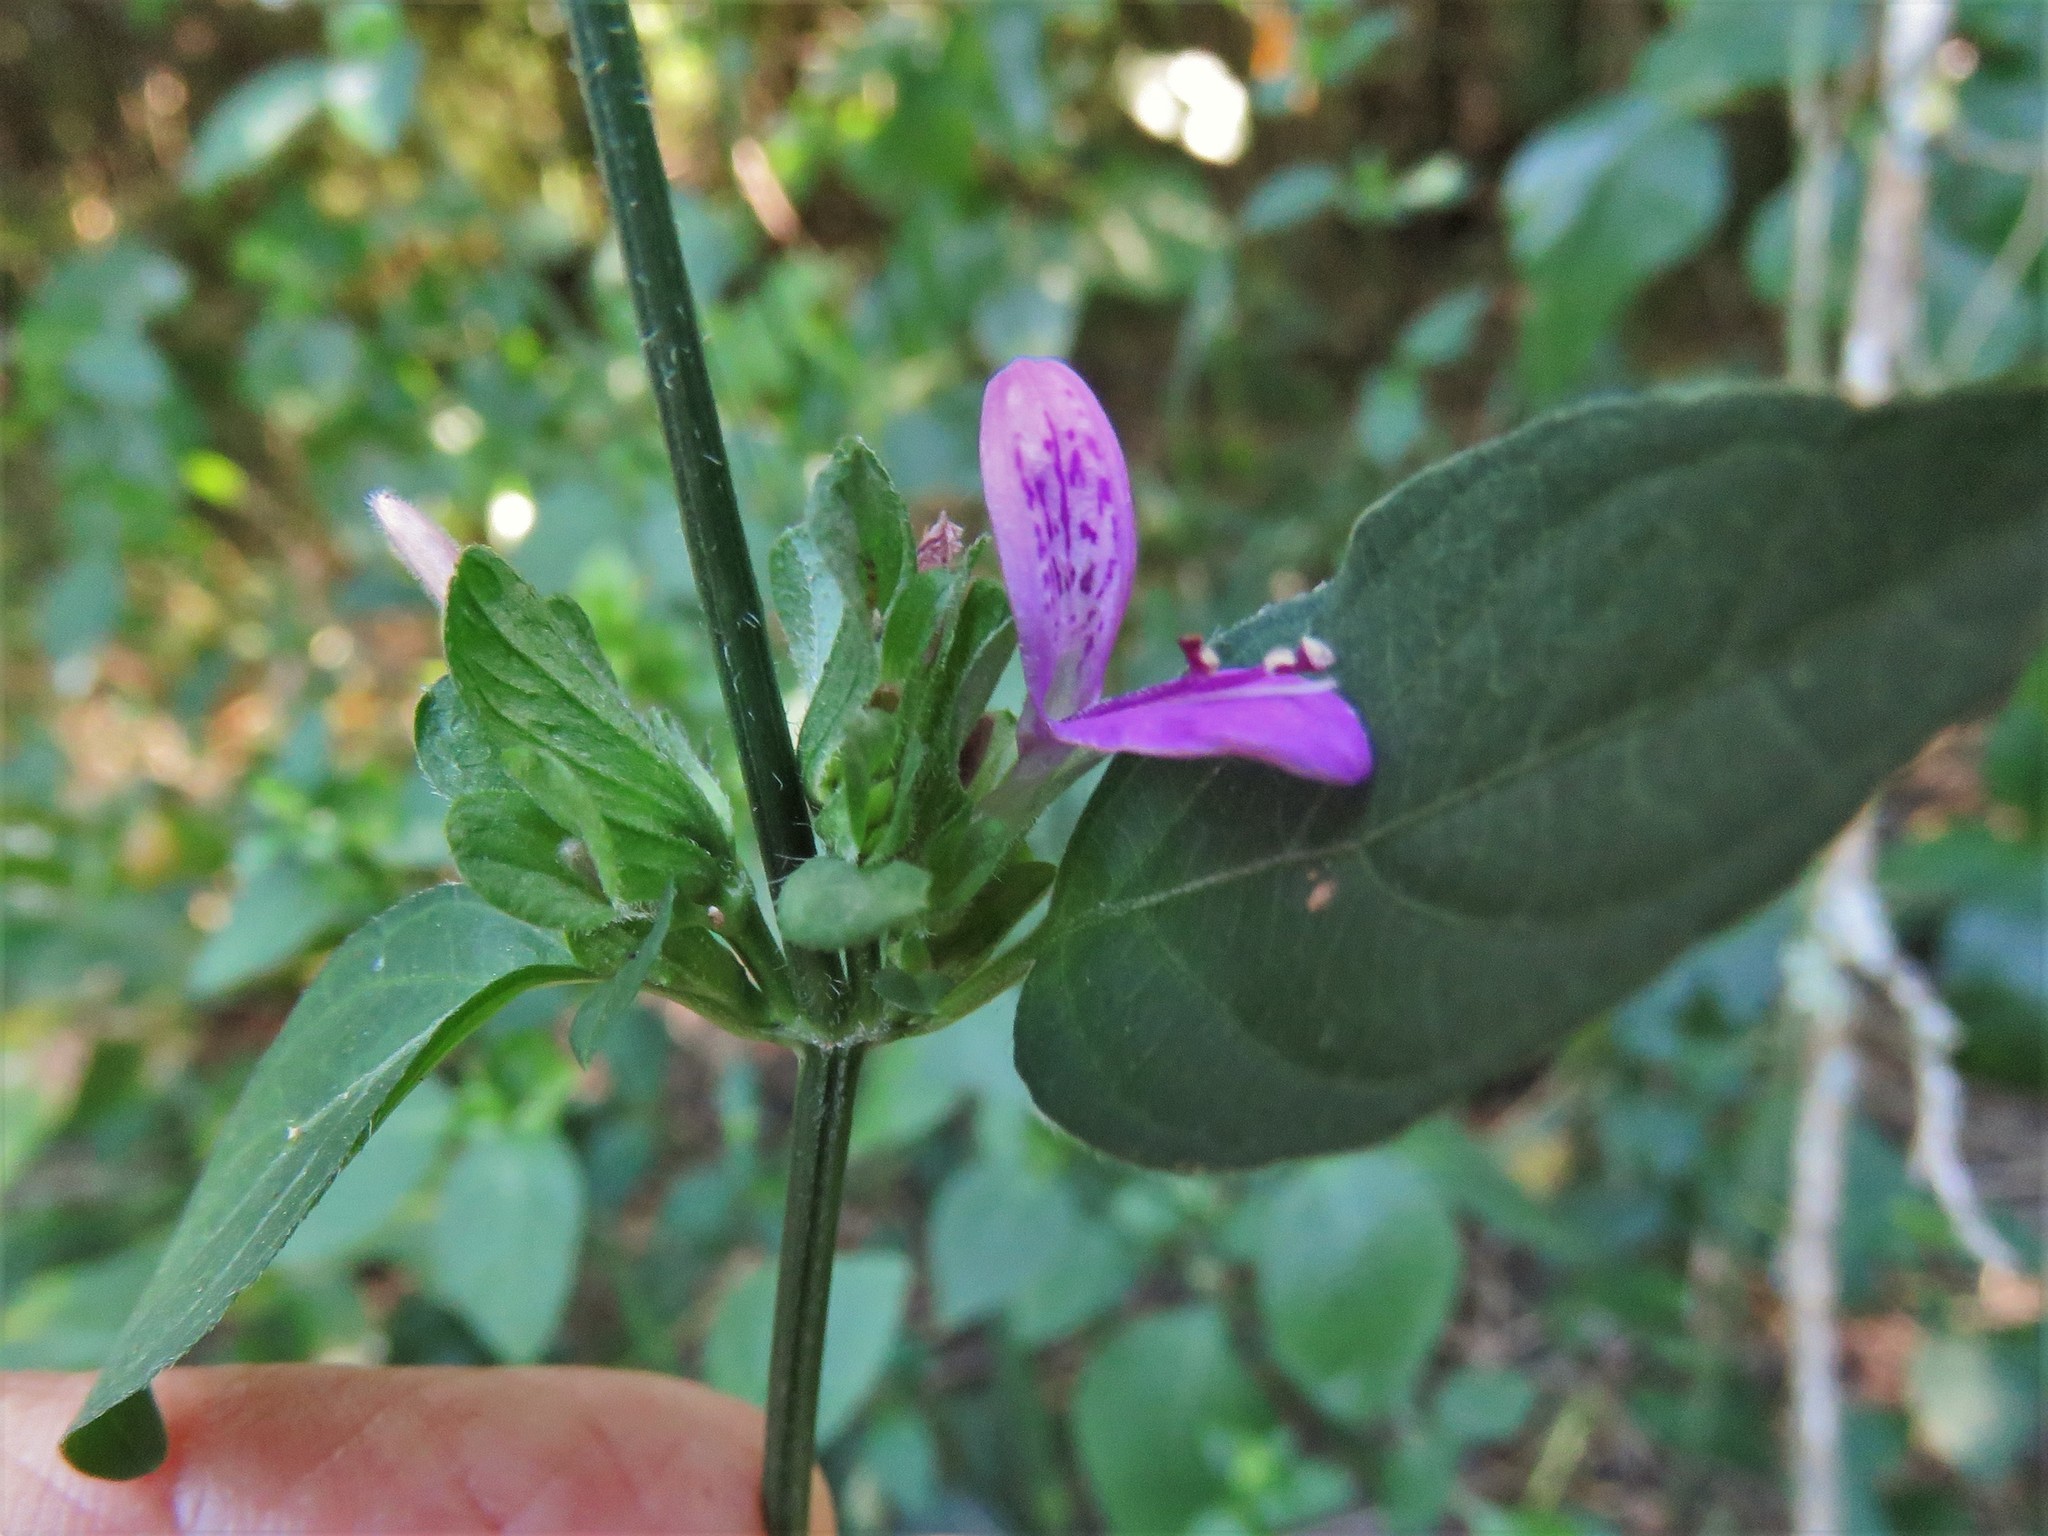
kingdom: Plantae
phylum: Tracheophyta
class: Magnoliopsida
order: Lamiales
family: Acanthaceae
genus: Dicliptera
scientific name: Dicliptera brachiata
